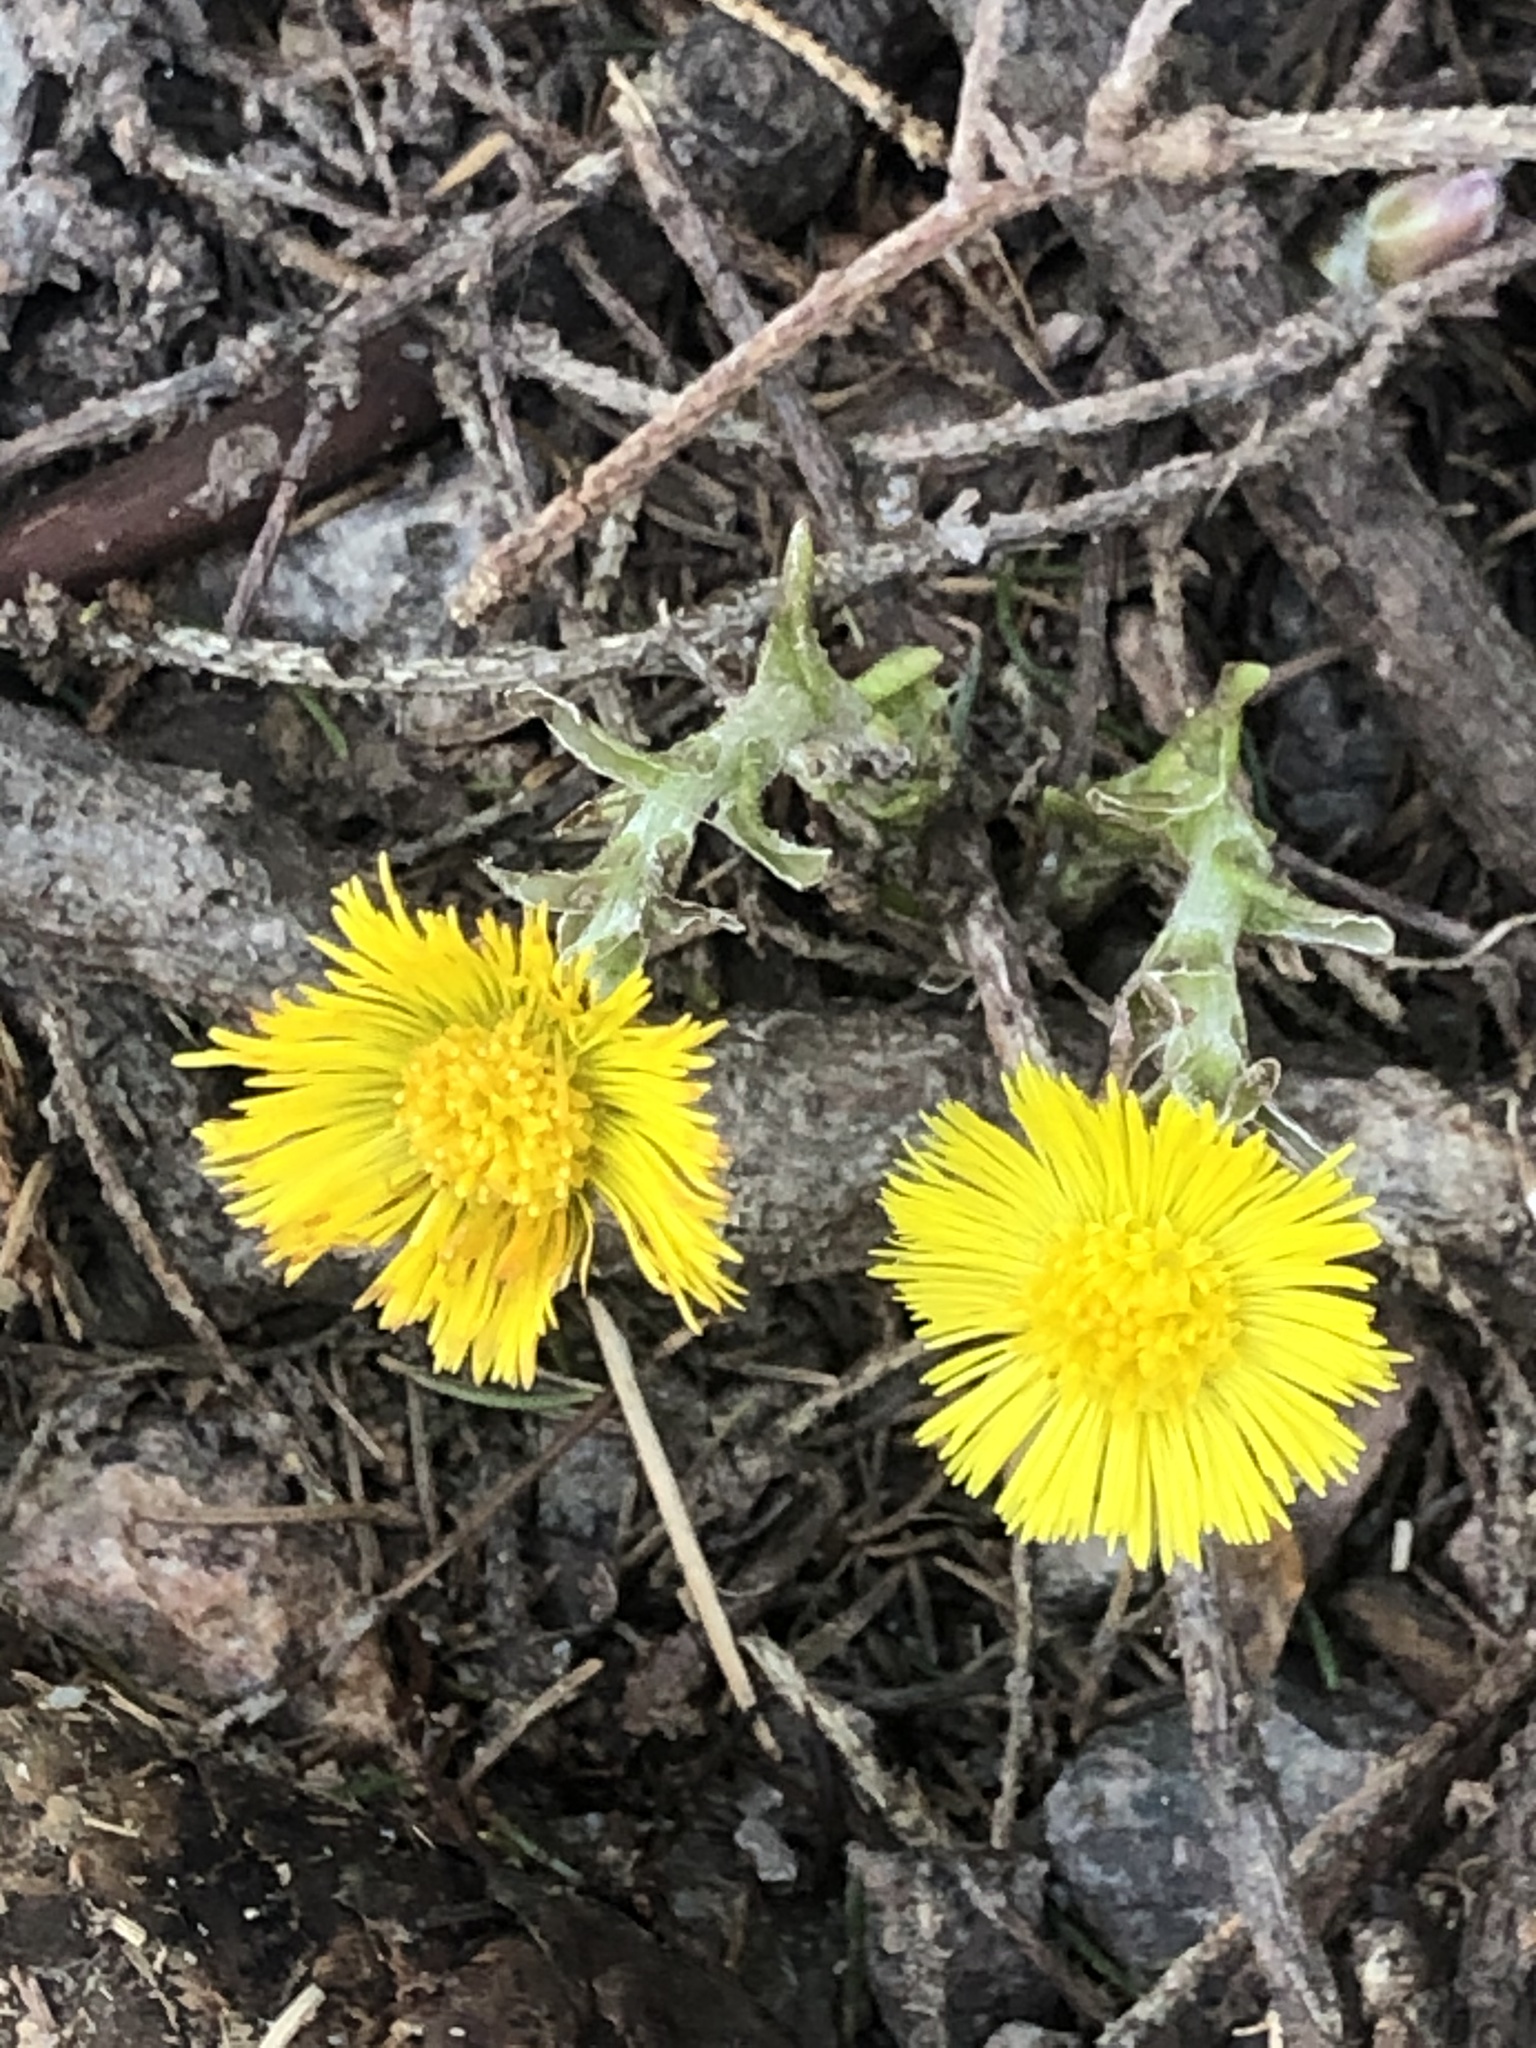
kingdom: Plantae
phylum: Tracheophyta
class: Magnoliopsida
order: Asterales
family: Asteraceae
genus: Tussilago
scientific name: Tussilago farfara
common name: Coltsfoot
